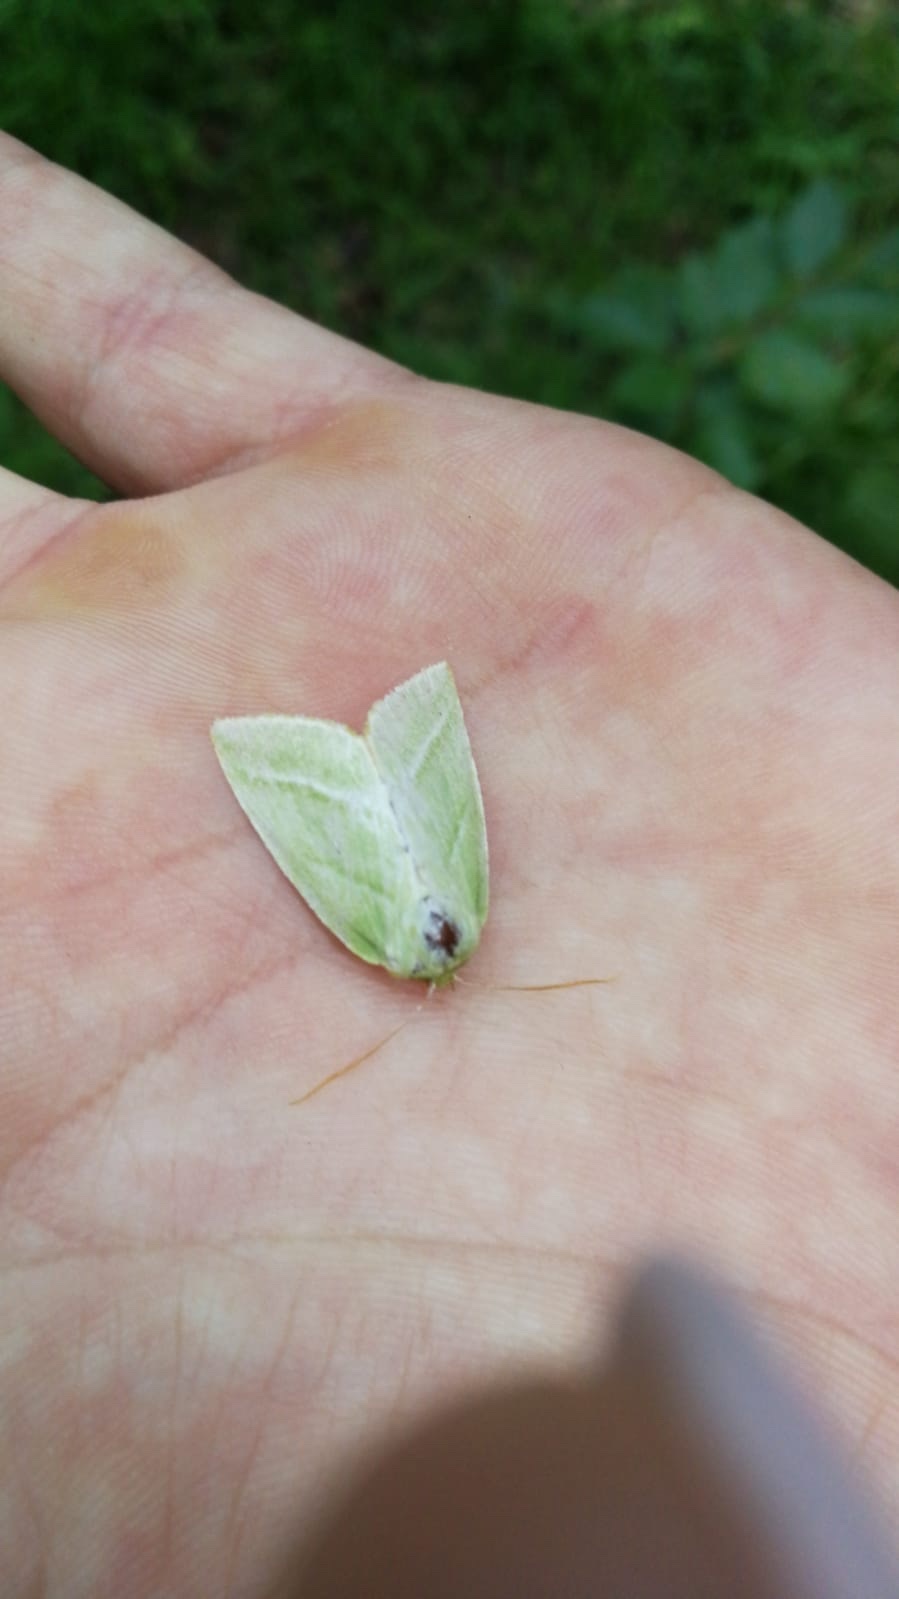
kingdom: Animalia
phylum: Arthropoda
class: Insecta
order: Lepidoptera
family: Nolidae
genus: Pseudoips
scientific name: Pseudoips prasinana
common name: Green silver-lines
